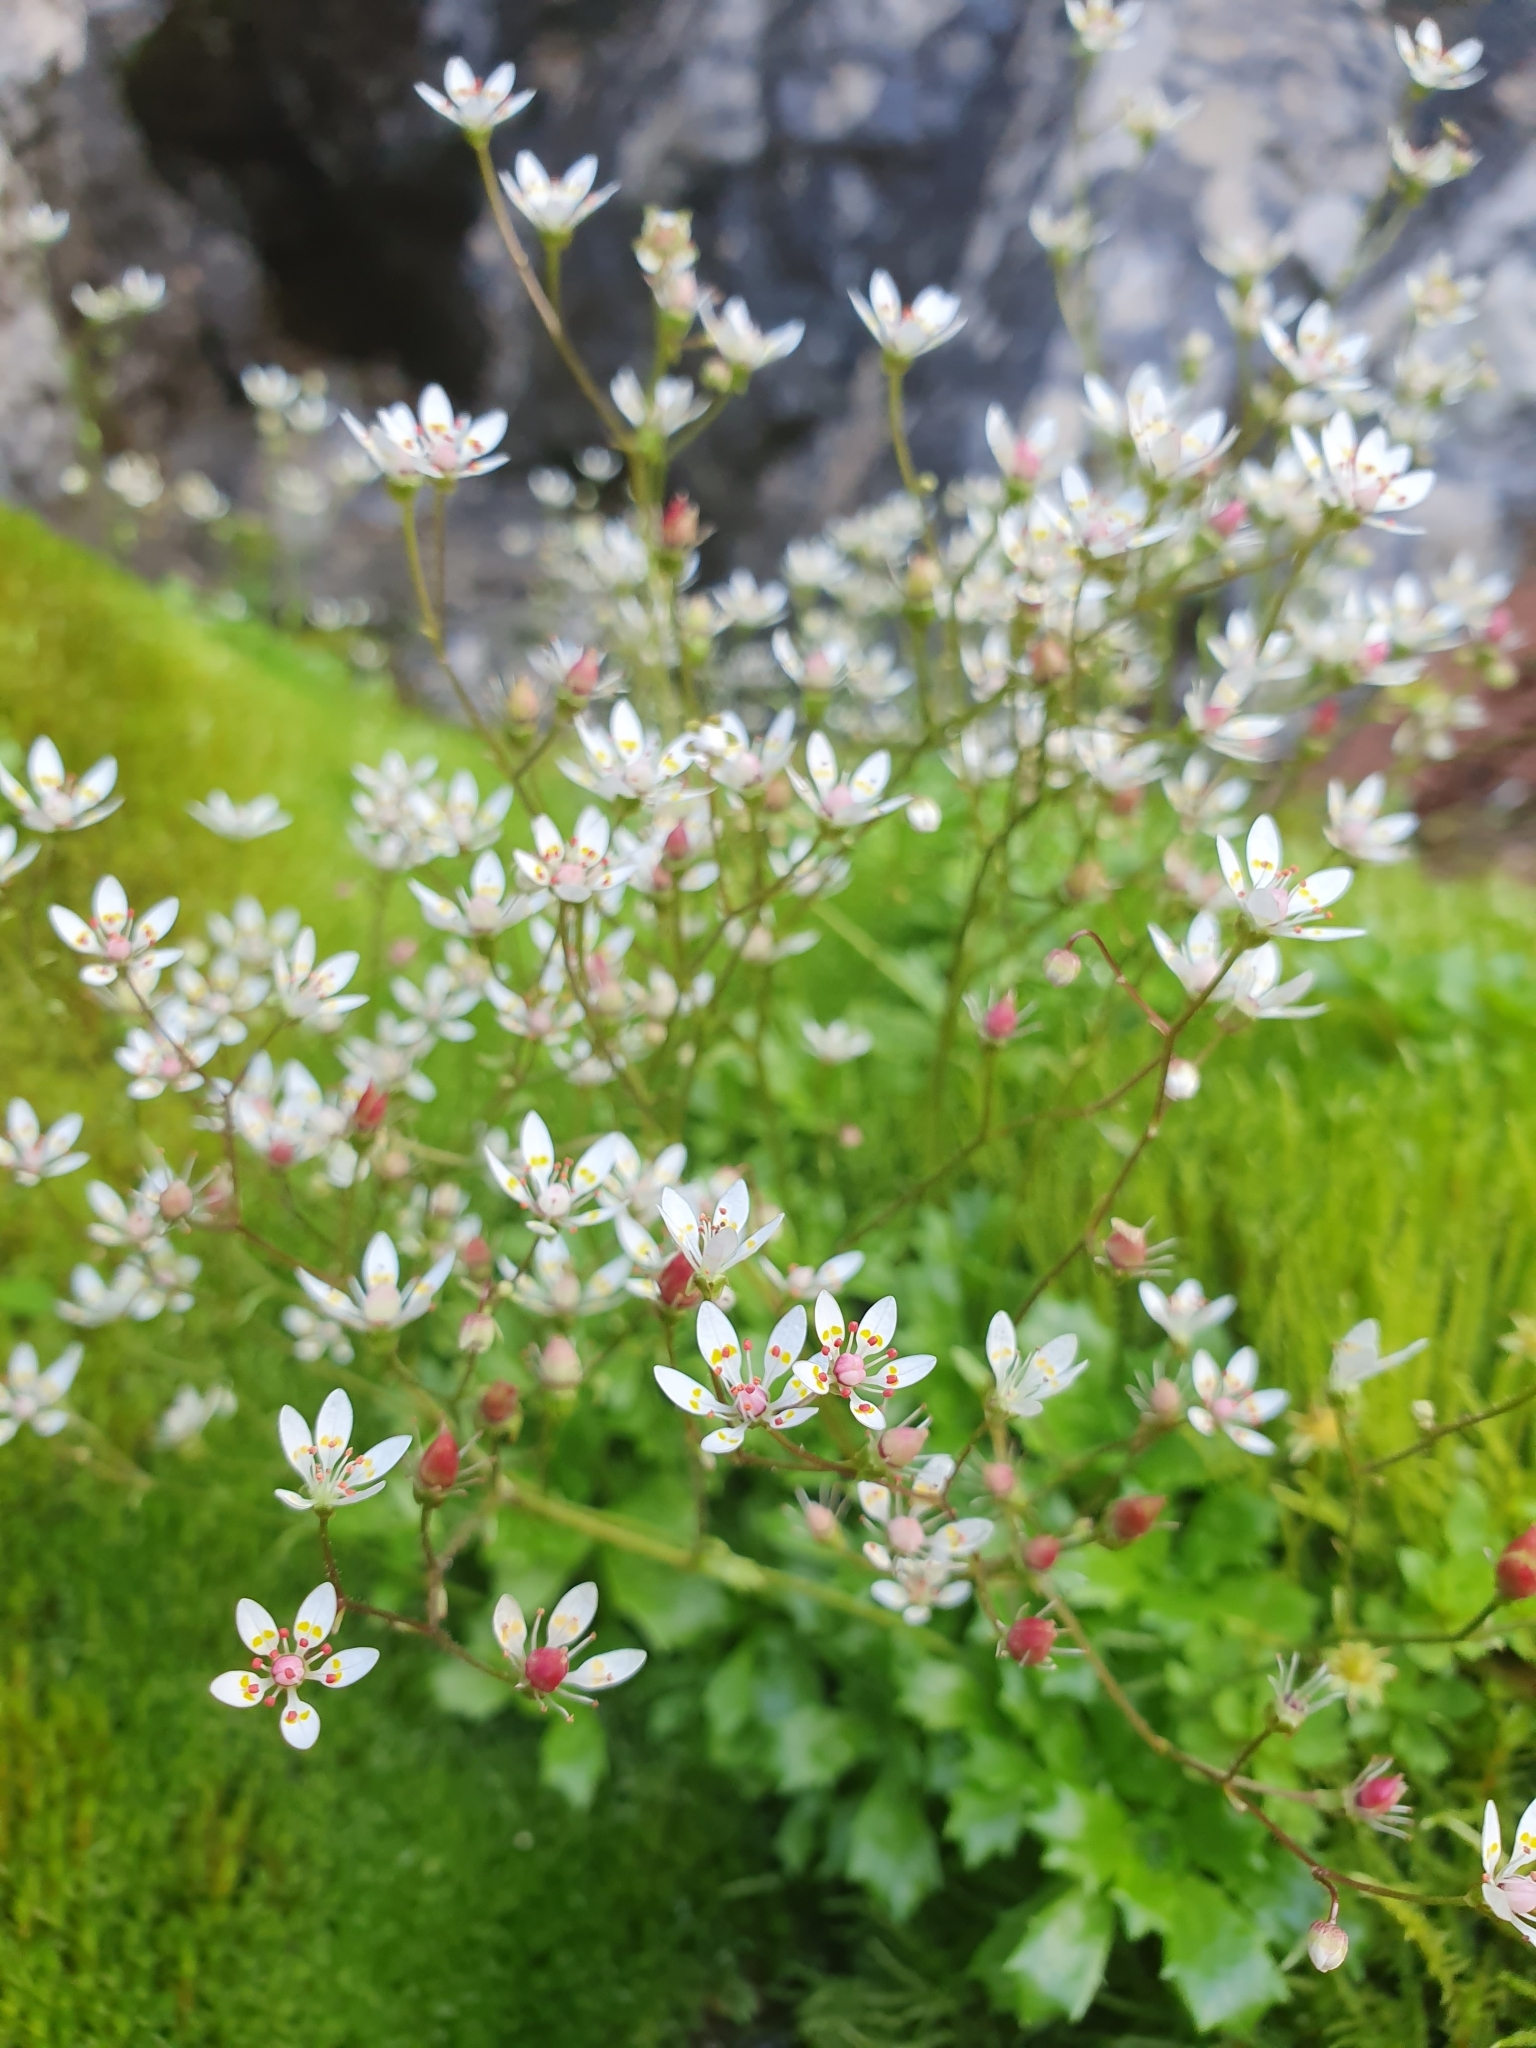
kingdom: Plantae
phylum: Tracheophyta
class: Magnoliopsida
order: Saxifragales
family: Saxifragaceae
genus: Micranthes
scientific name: Micranthes stellaris
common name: Starry saxifrage
